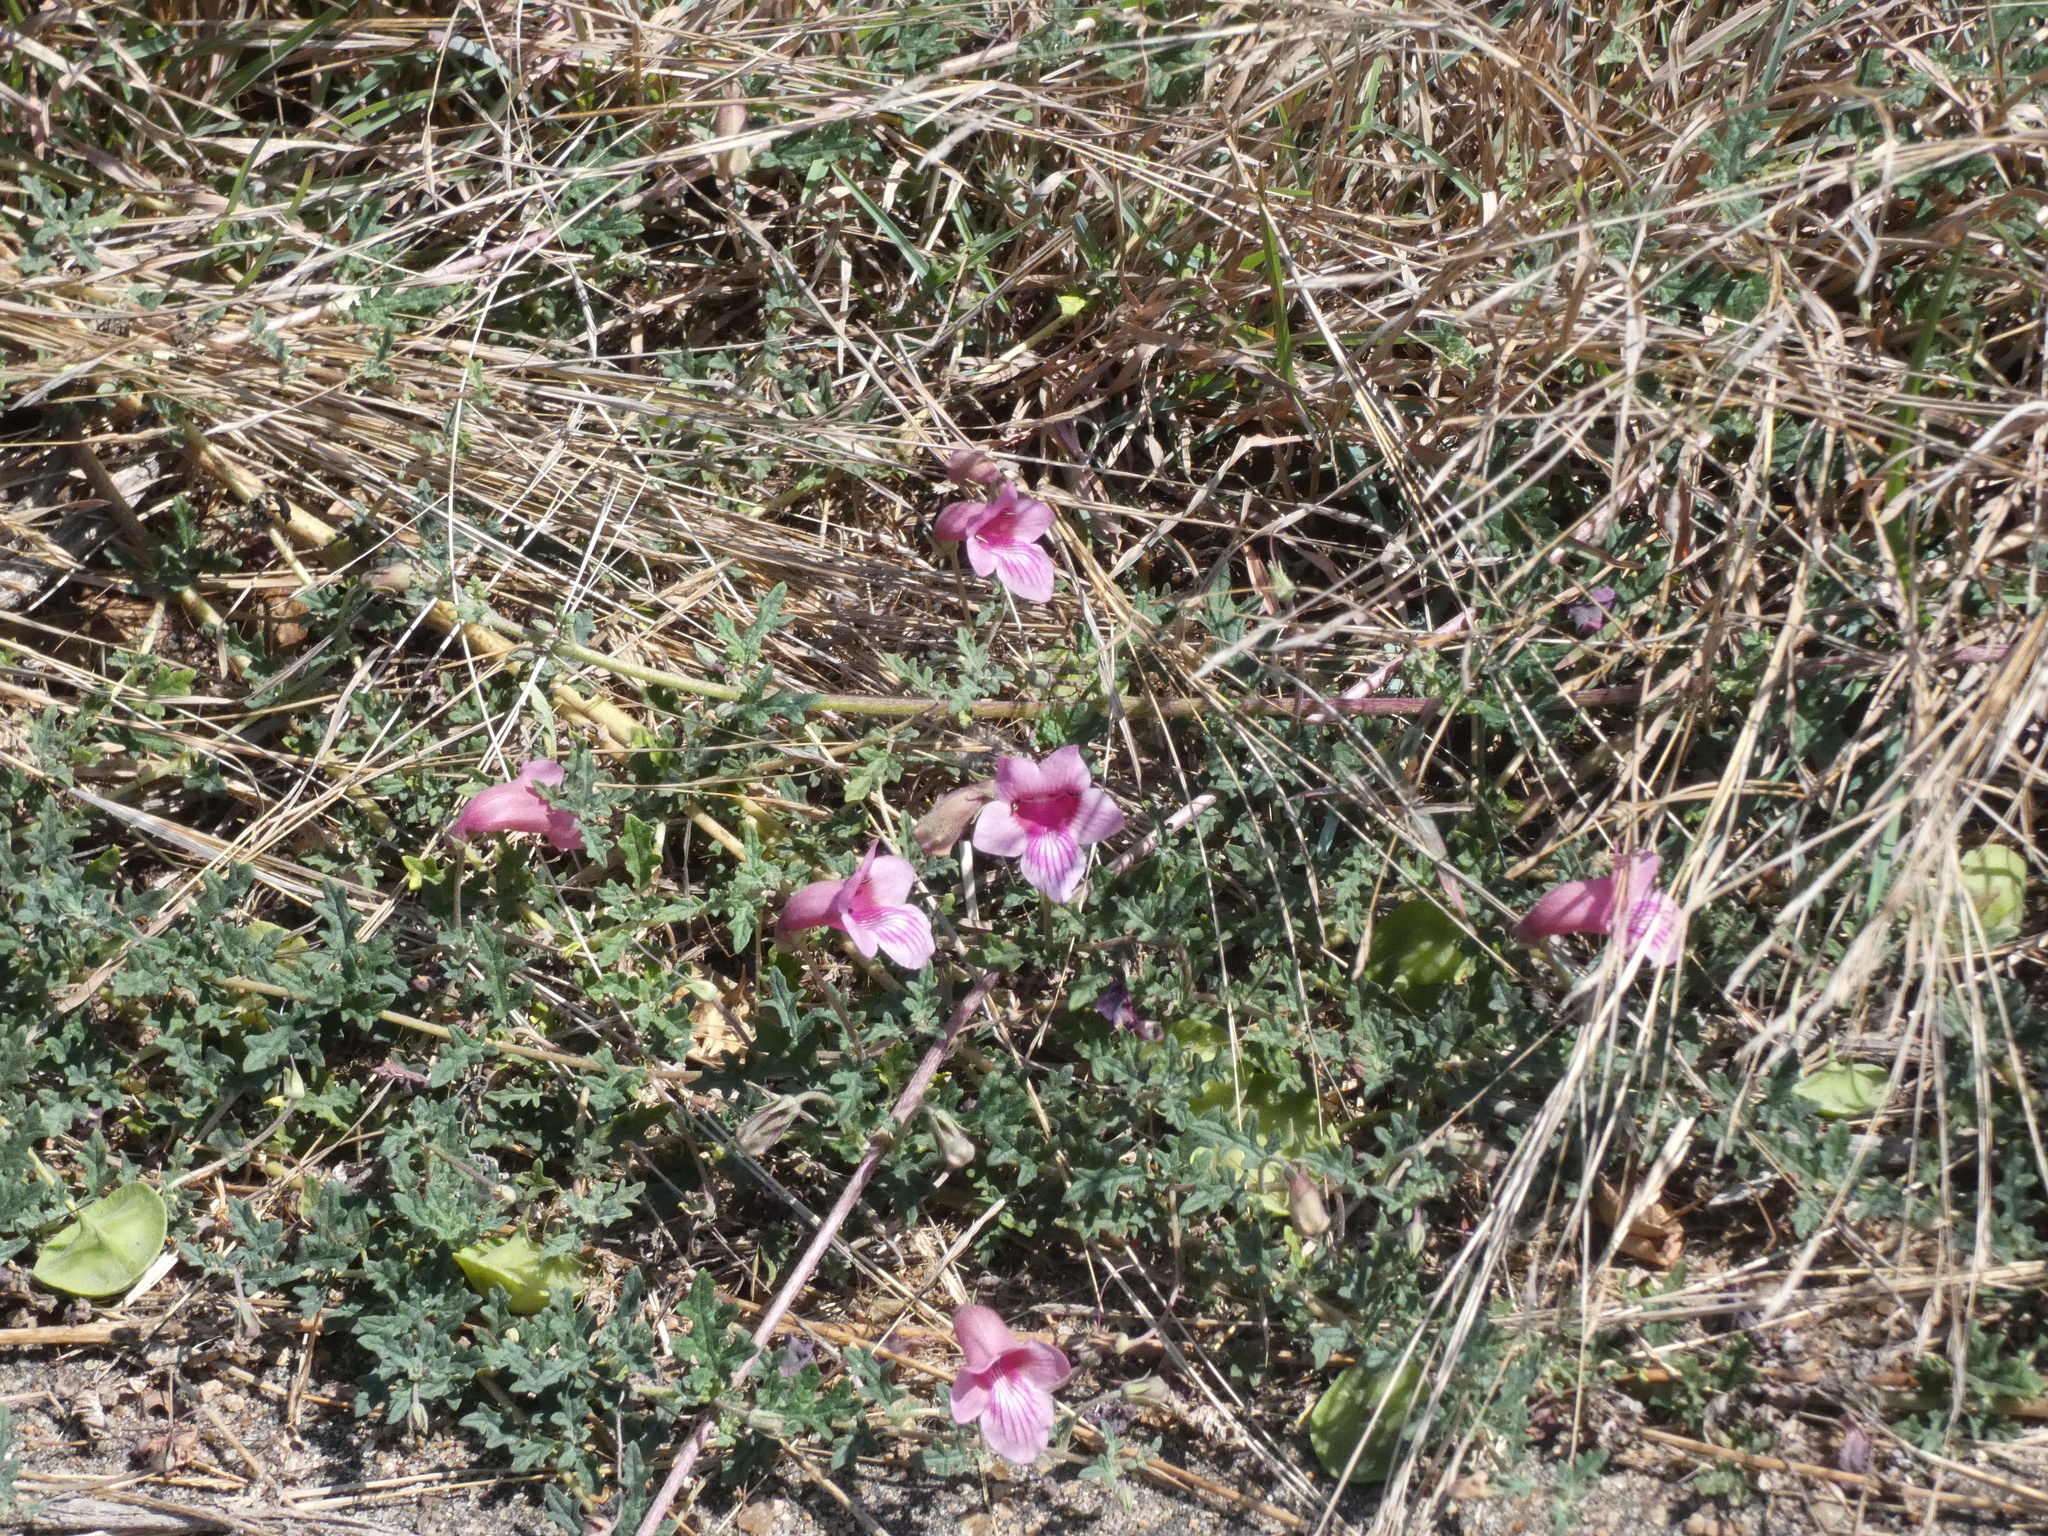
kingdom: Plantae
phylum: Tracheophyta
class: Magnoliopsida
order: Lamiales
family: Pedaliaceae
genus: Dicerocaryum
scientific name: Dicerocaryum senecioides
